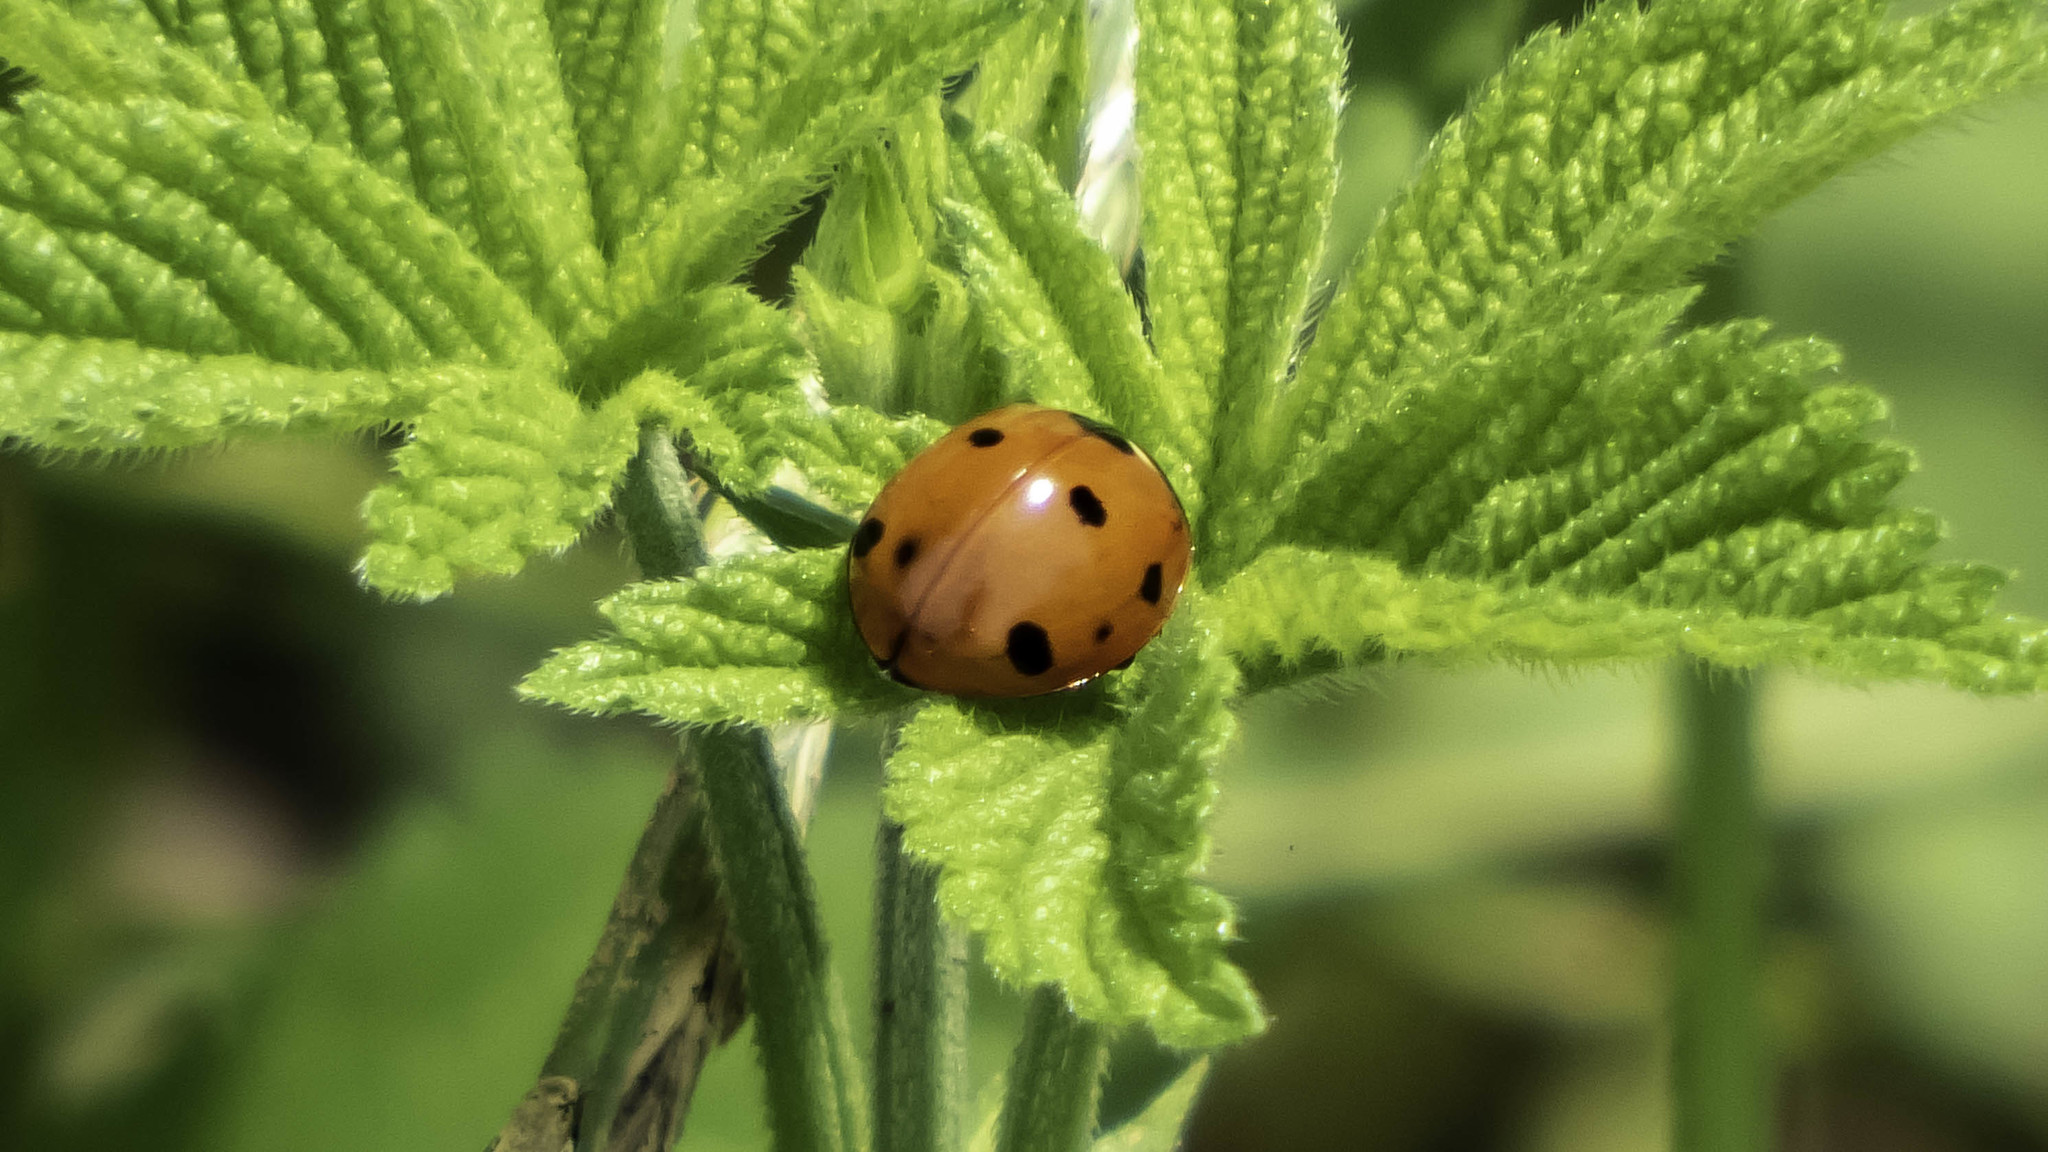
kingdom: Animalia
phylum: Arthropoda
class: Insecta
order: Coleoptera
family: Coccinellidae
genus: Coccinella
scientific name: Coccinella septempunctata
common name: Sevenspotted lady beetle
